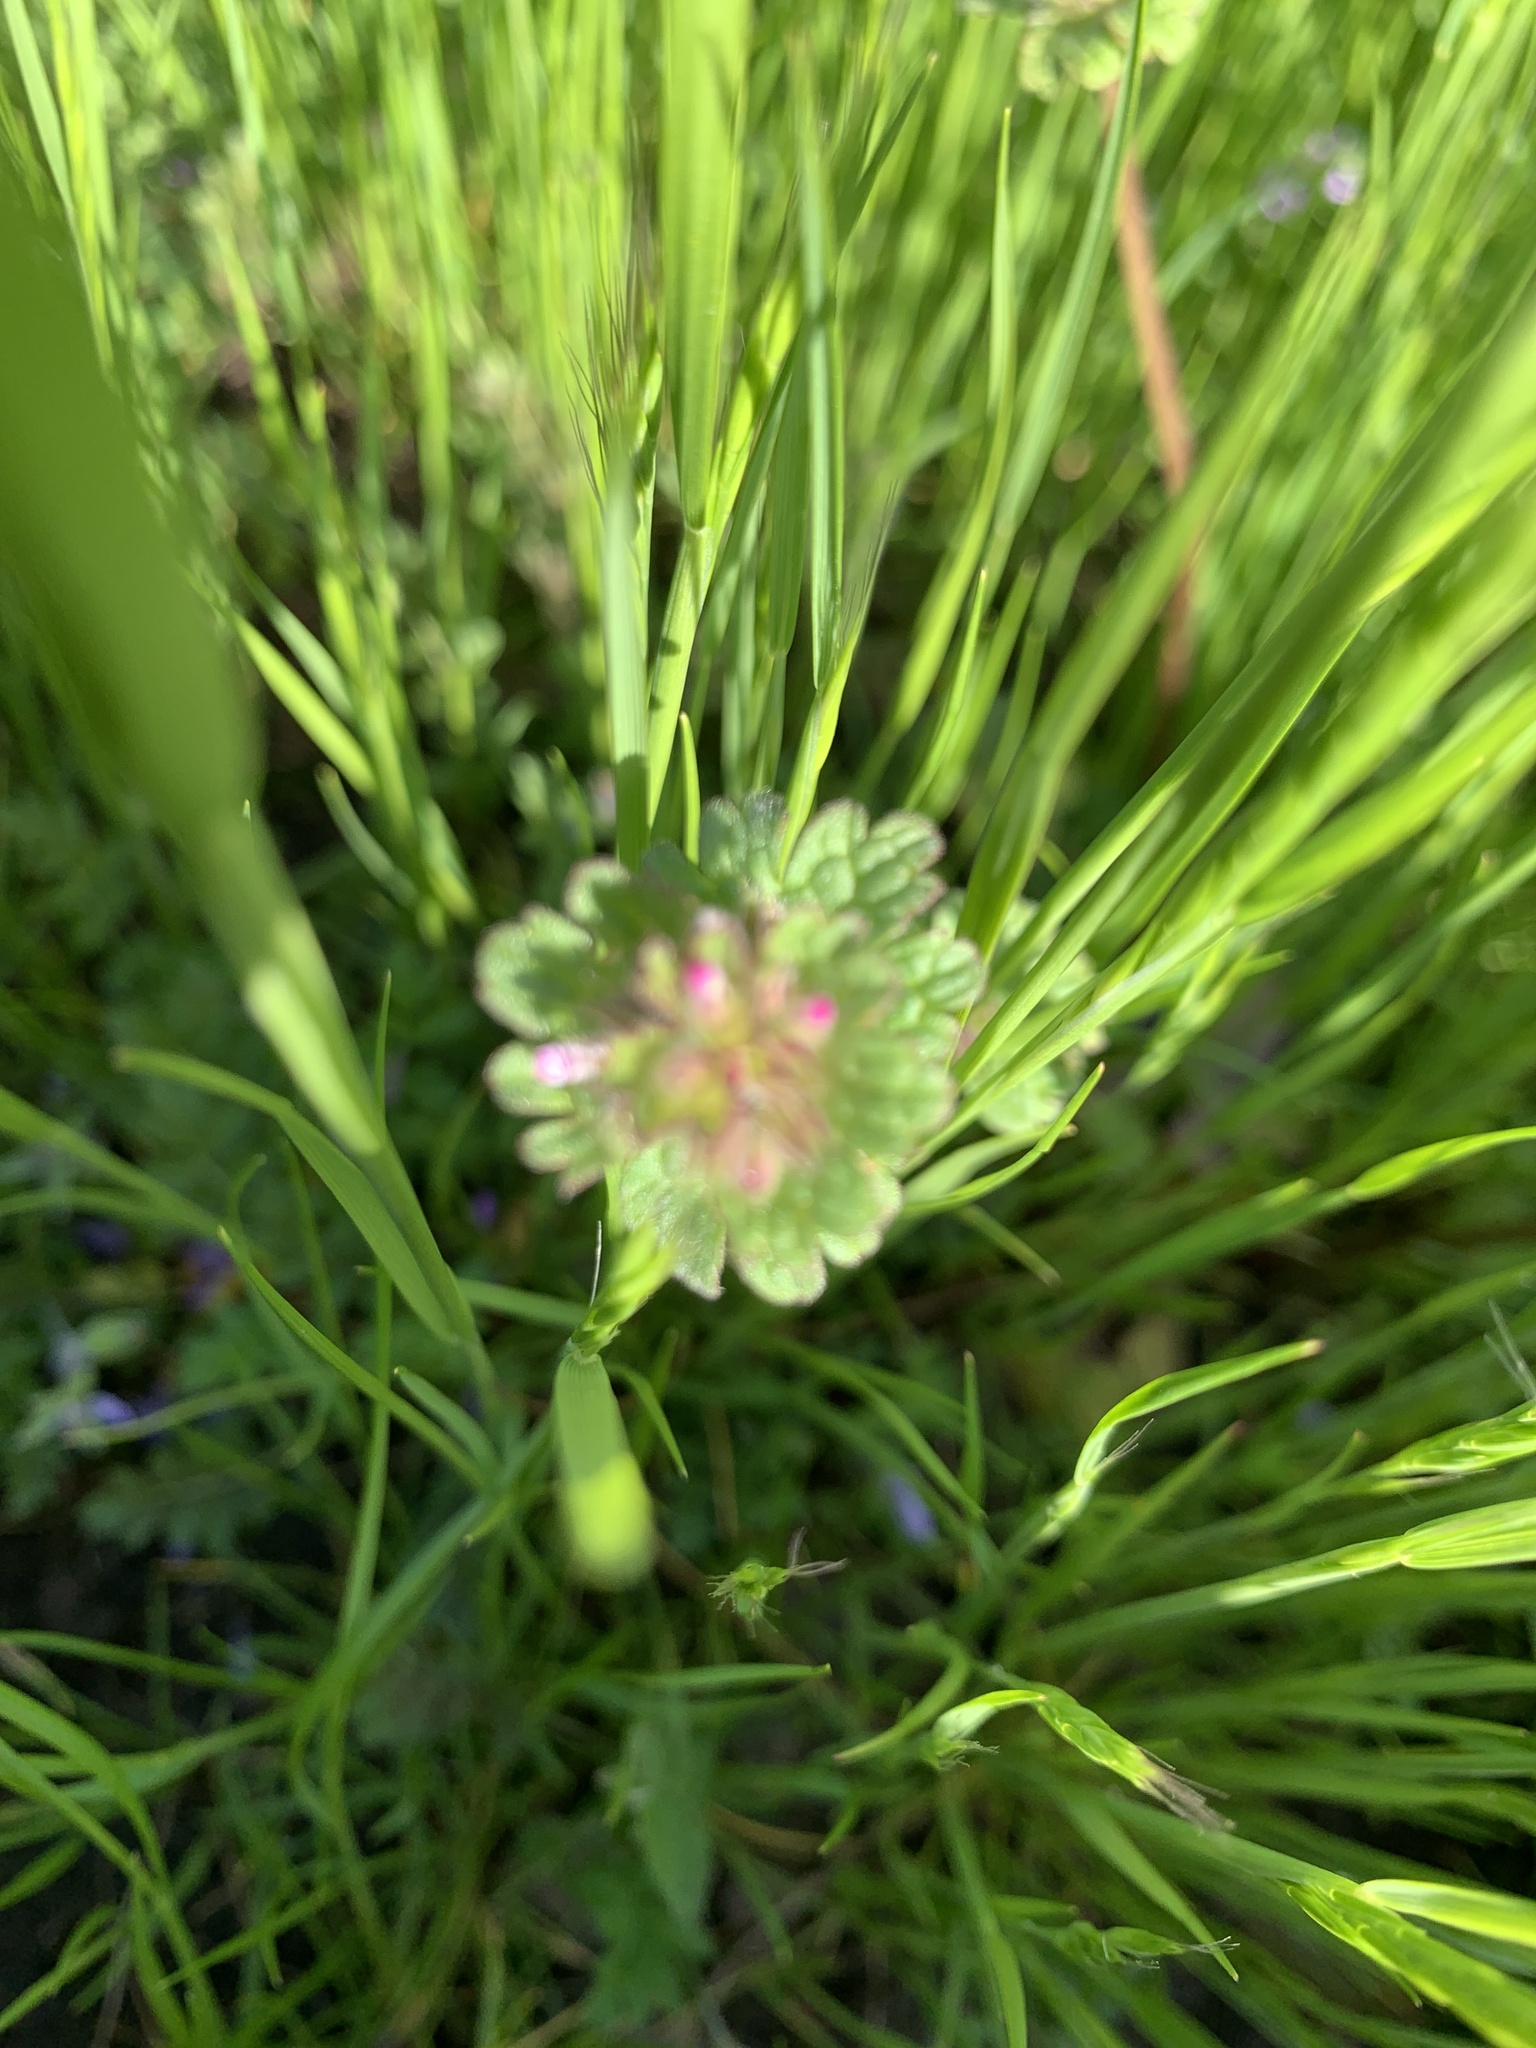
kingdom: Plantae
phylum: Tracheophyta
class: Magnoliopsida
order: Lamiales
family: Lamiaceae
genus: Lamium
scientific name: Lamium amplexicaule
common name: Henbit dead-nettle
